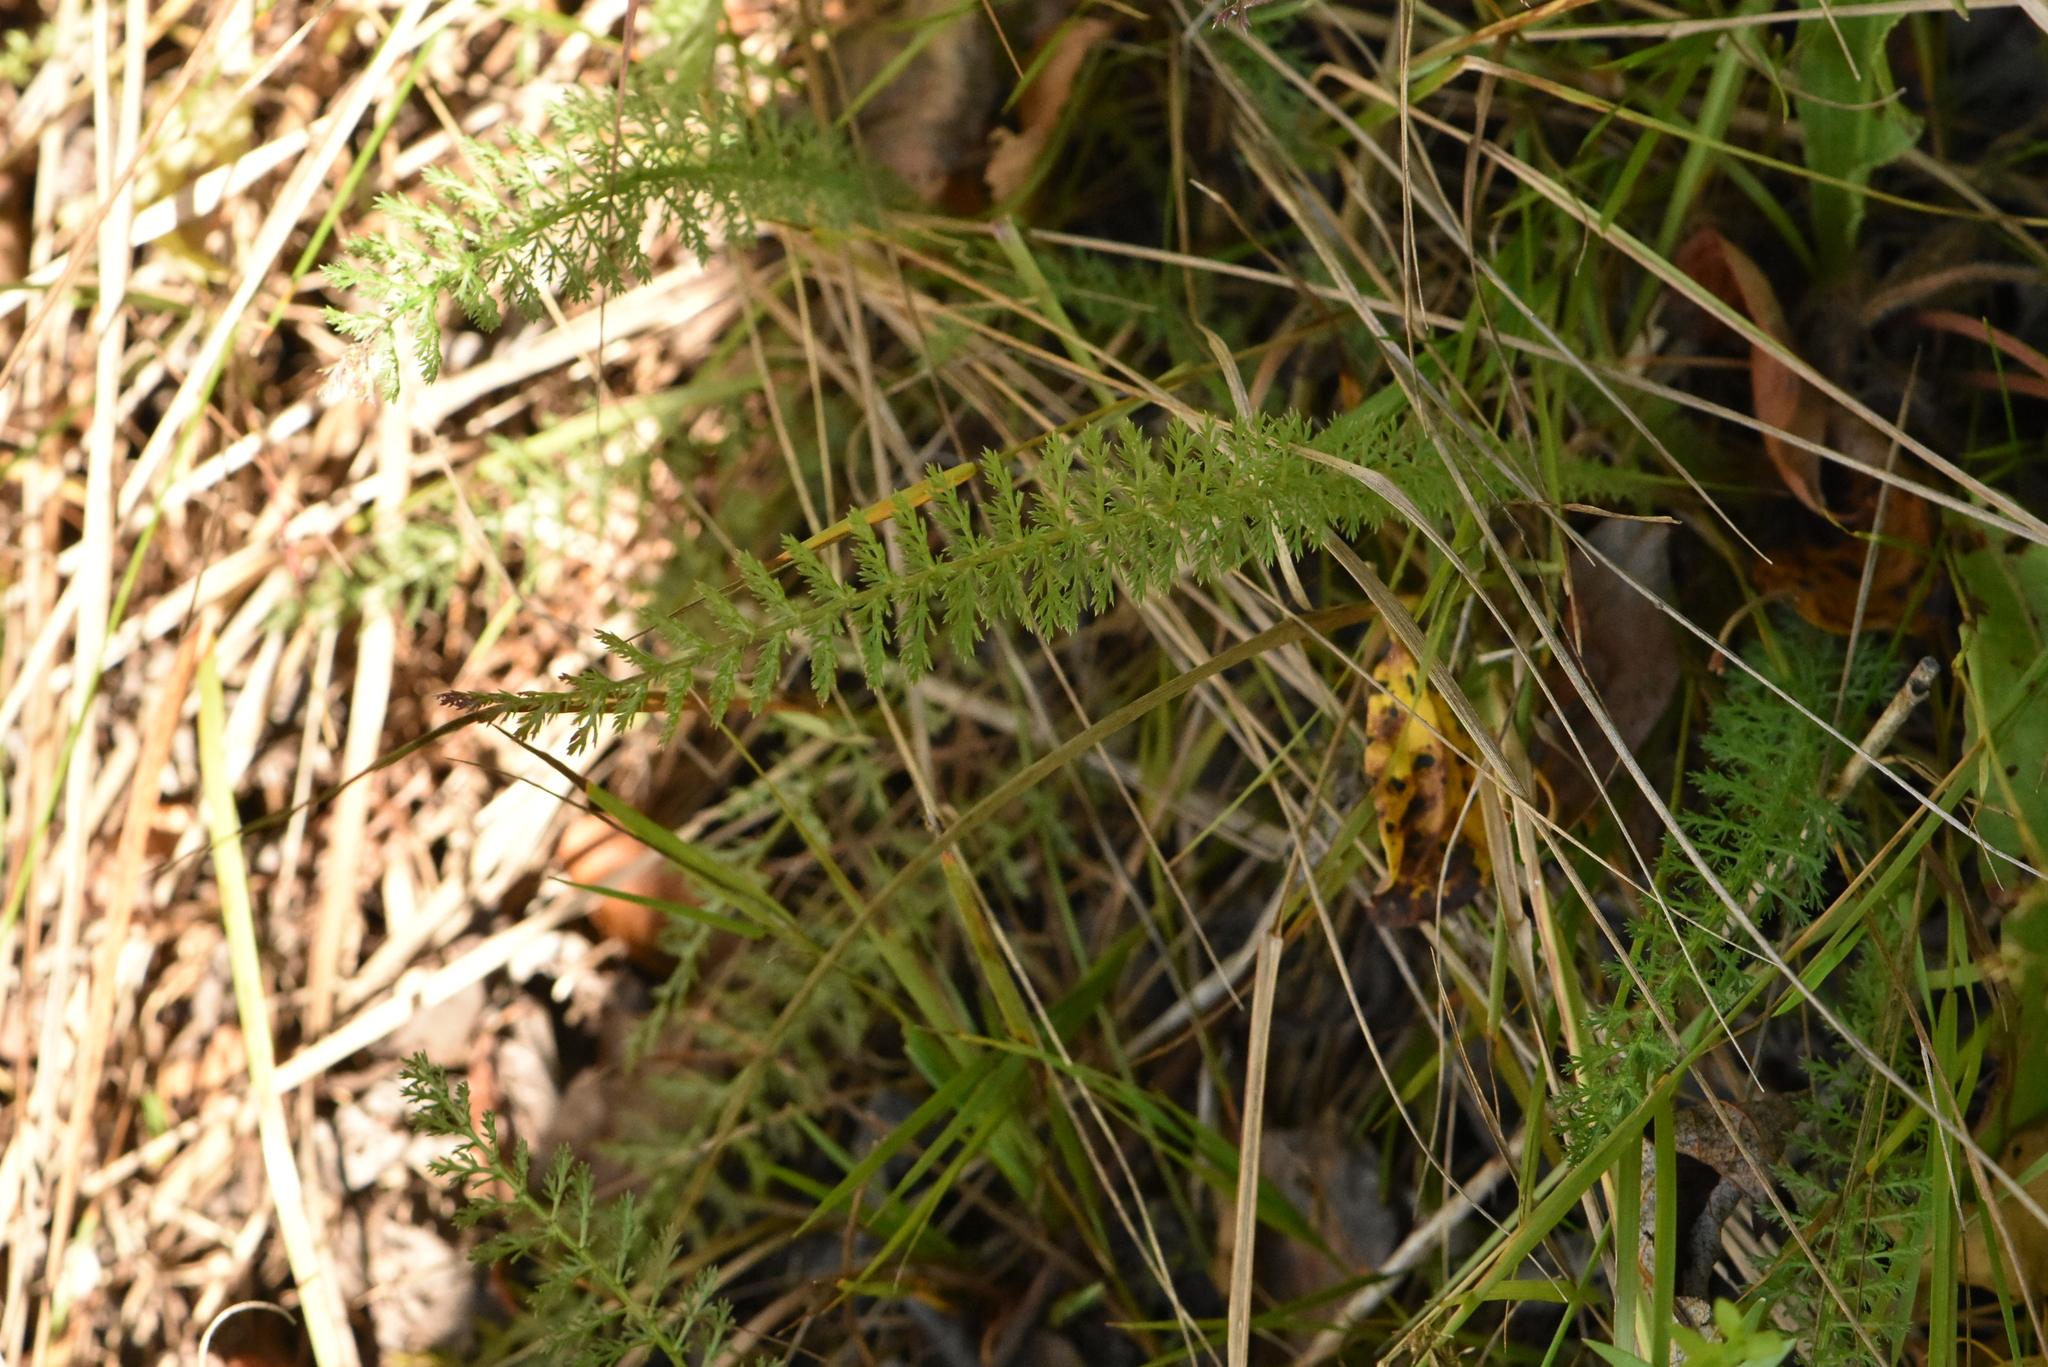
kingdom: Plantae
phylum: Tracheophyta
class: Magnoliopsida
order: Asterales
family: Asteraceae
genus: Achillea
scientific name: Achillea millefolium
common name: Yarrow
